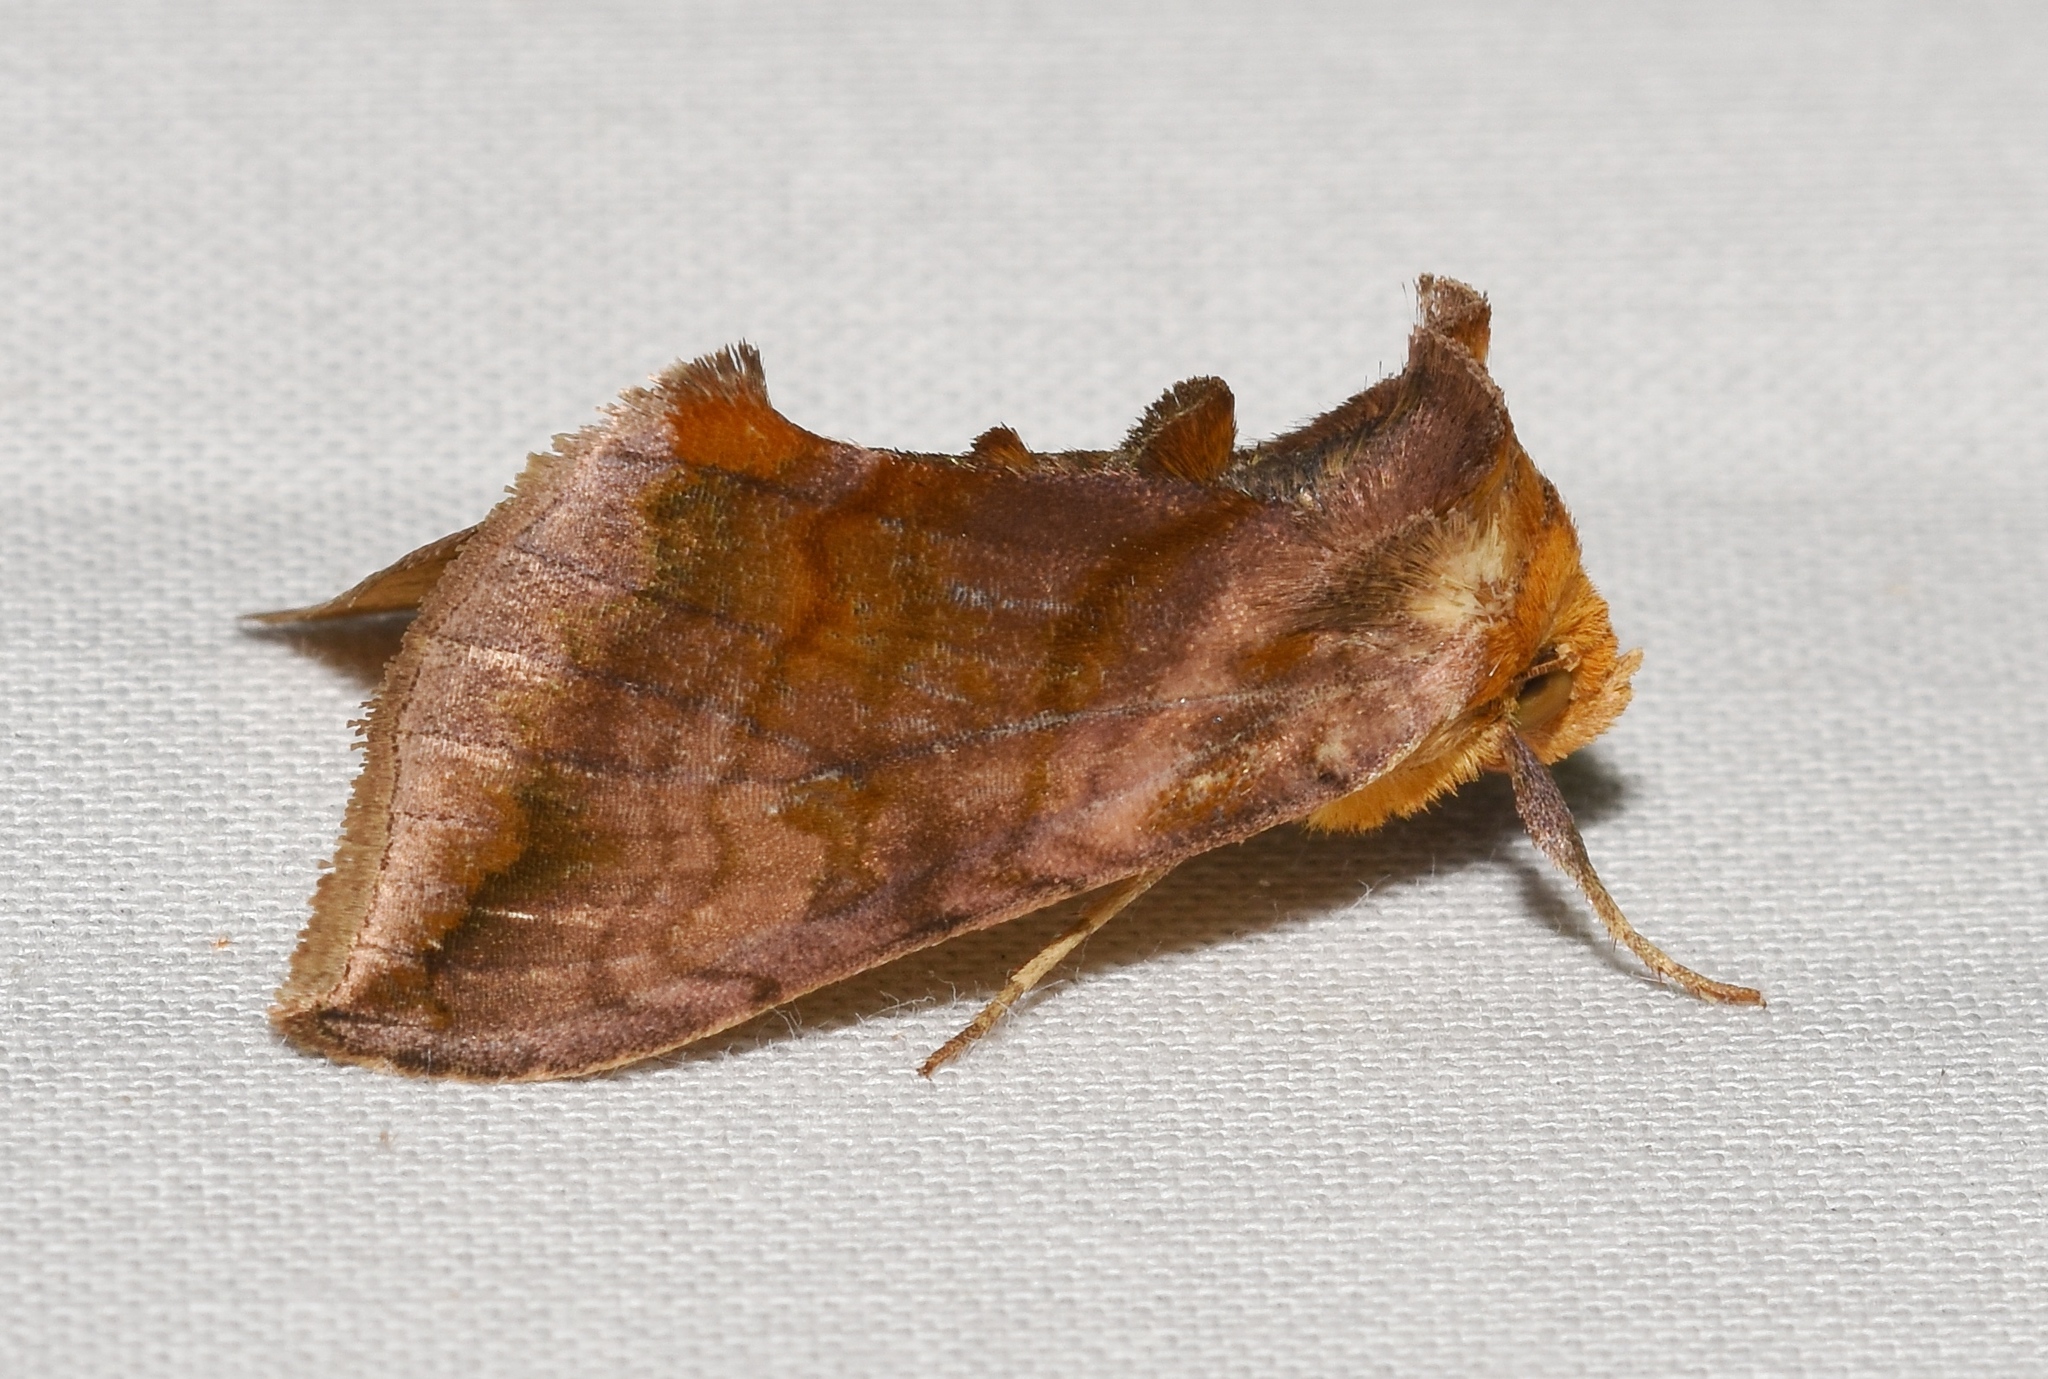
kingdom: Animalia
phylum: Arthropoda
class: Insecta
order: Lepidoptera
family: Noctuidae
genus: Allagrapha
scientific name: Allagrapha aerea
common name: Unspotted looper moth
